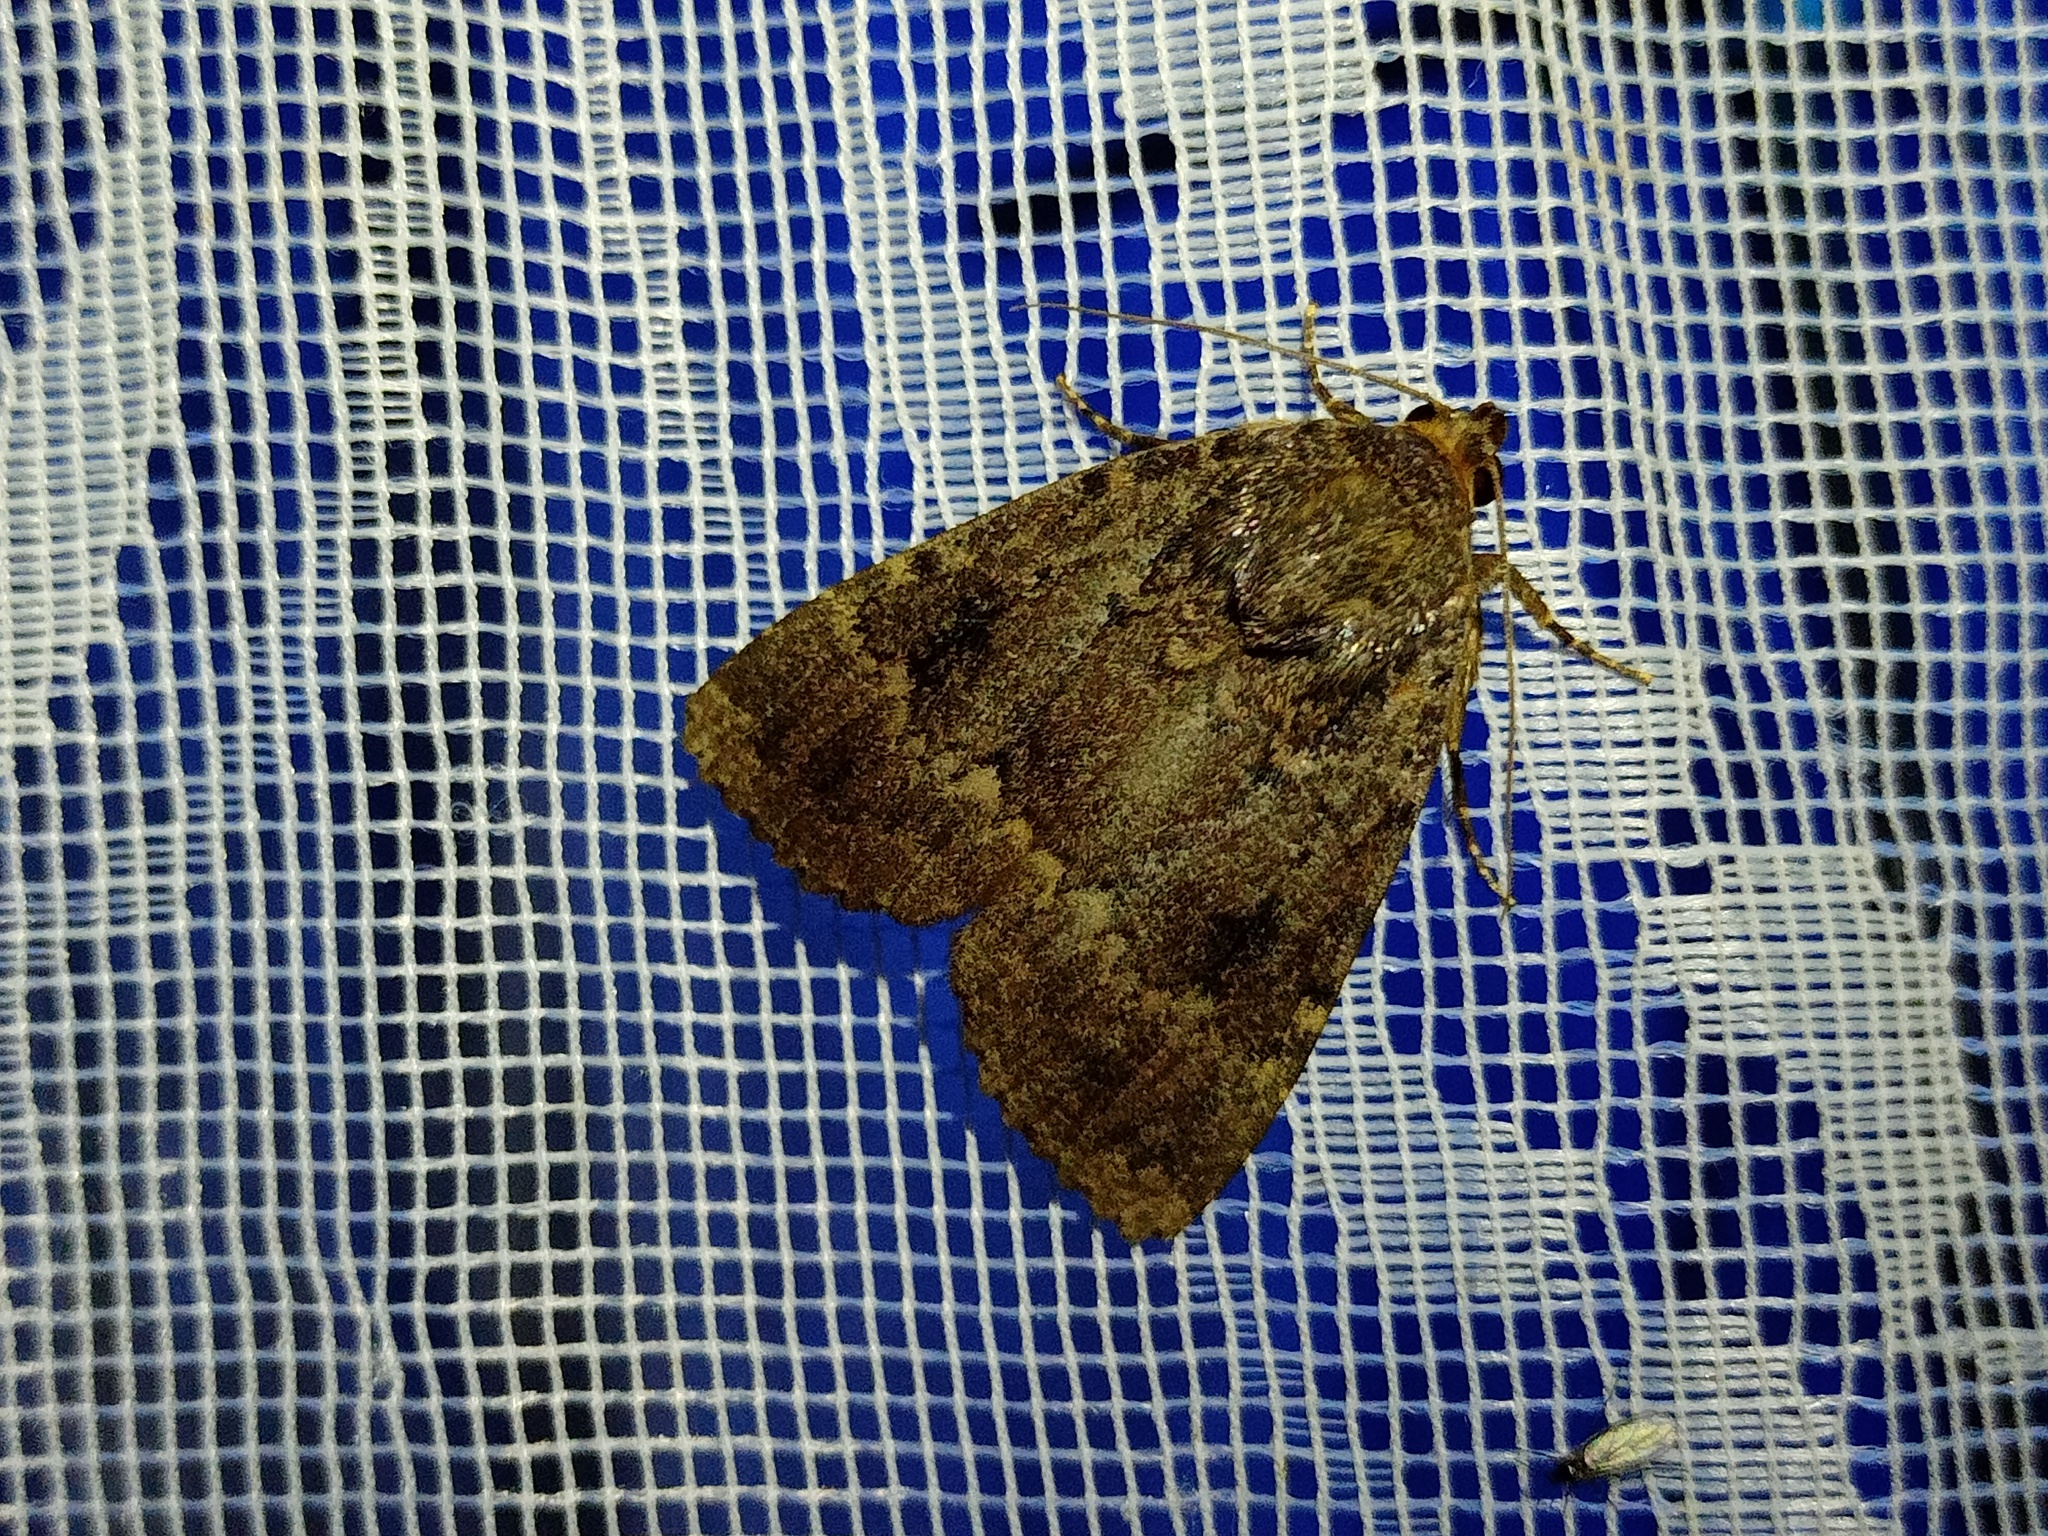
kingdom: Animalia
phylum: Arthropoda
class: Insecta
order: Lepidoptera
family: Noctuidae
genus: Amphipyra
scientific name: Amphipyra pyramidea
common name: Copper underwing
